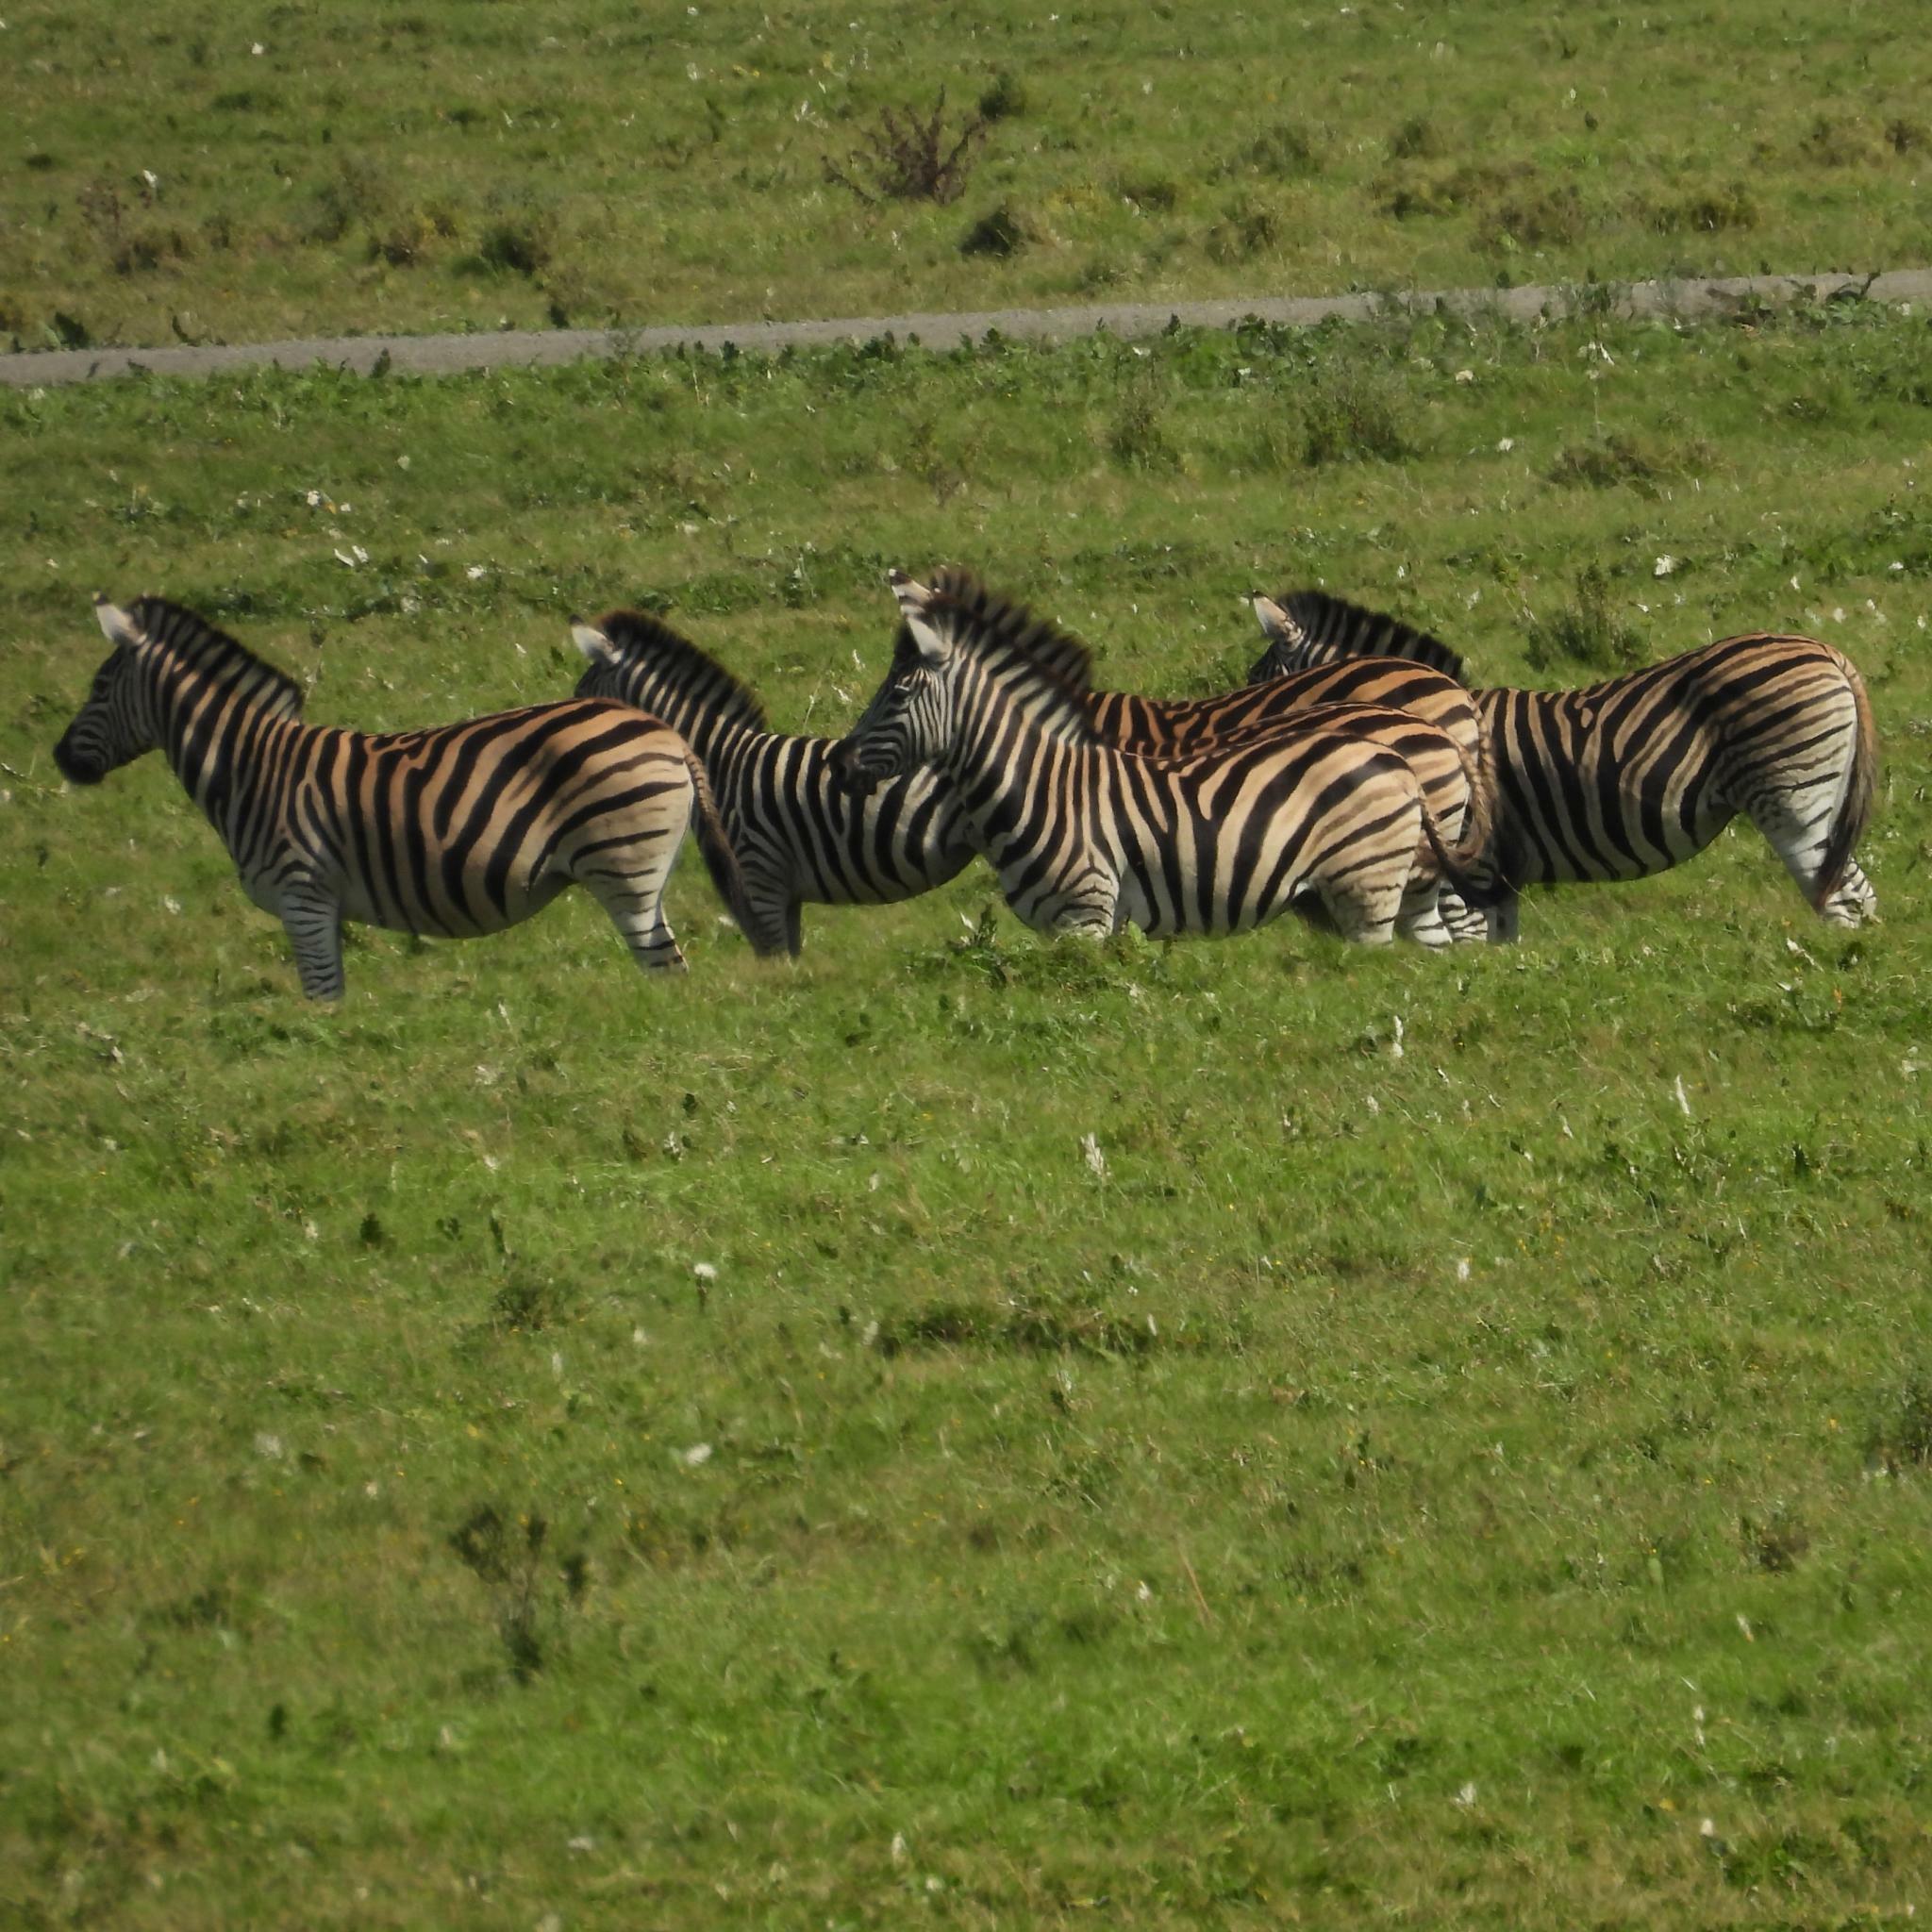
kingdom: Animalia
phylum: Chordata
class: Mammalia
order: Perissodactyla
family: Equidae
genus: Equus
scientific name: Equus quagga
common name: Plains zebra
